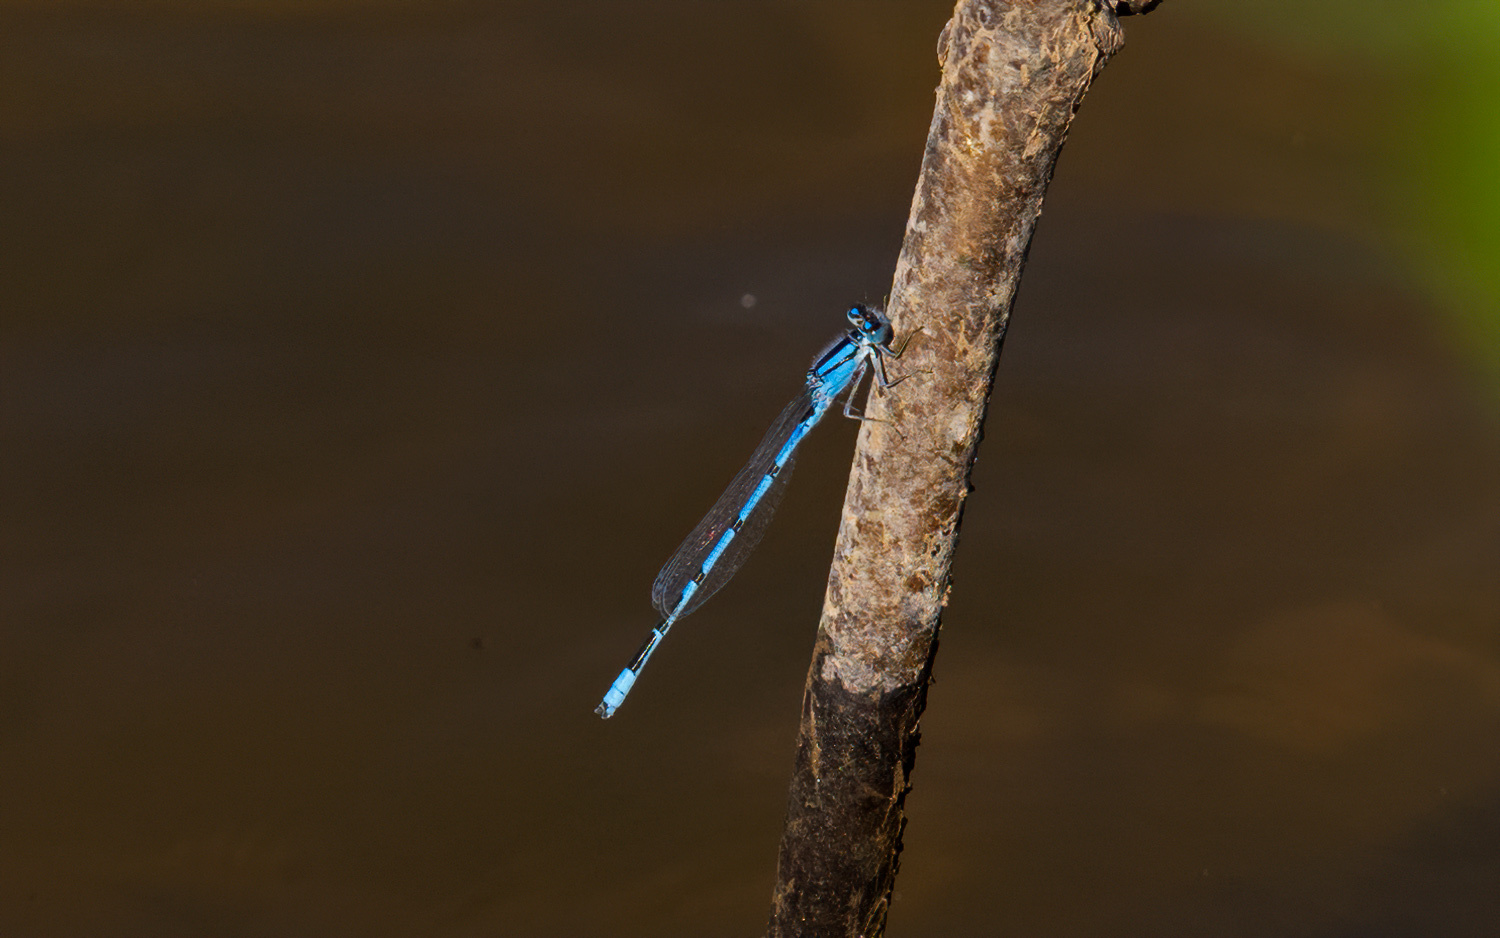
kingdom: Animalia
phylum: Arthropoda
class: Insecta
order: Odonata
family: Coenagrionidae
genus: Enallagma
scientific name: Enallagma civile
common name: Damselfly
